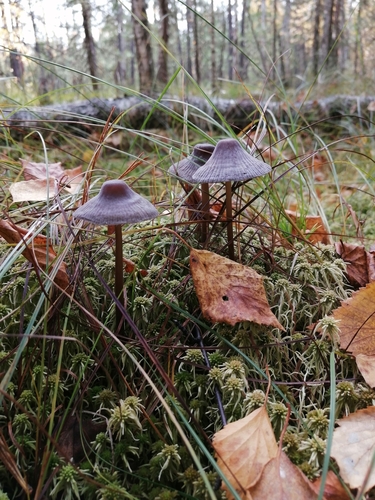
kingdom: Fungi
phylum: Basidiomycota
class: Agaricomycetes
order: Agaricales
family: Mycenaceae
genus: Mycena
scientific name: Mycena megaspora
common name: Rooting bonnet
